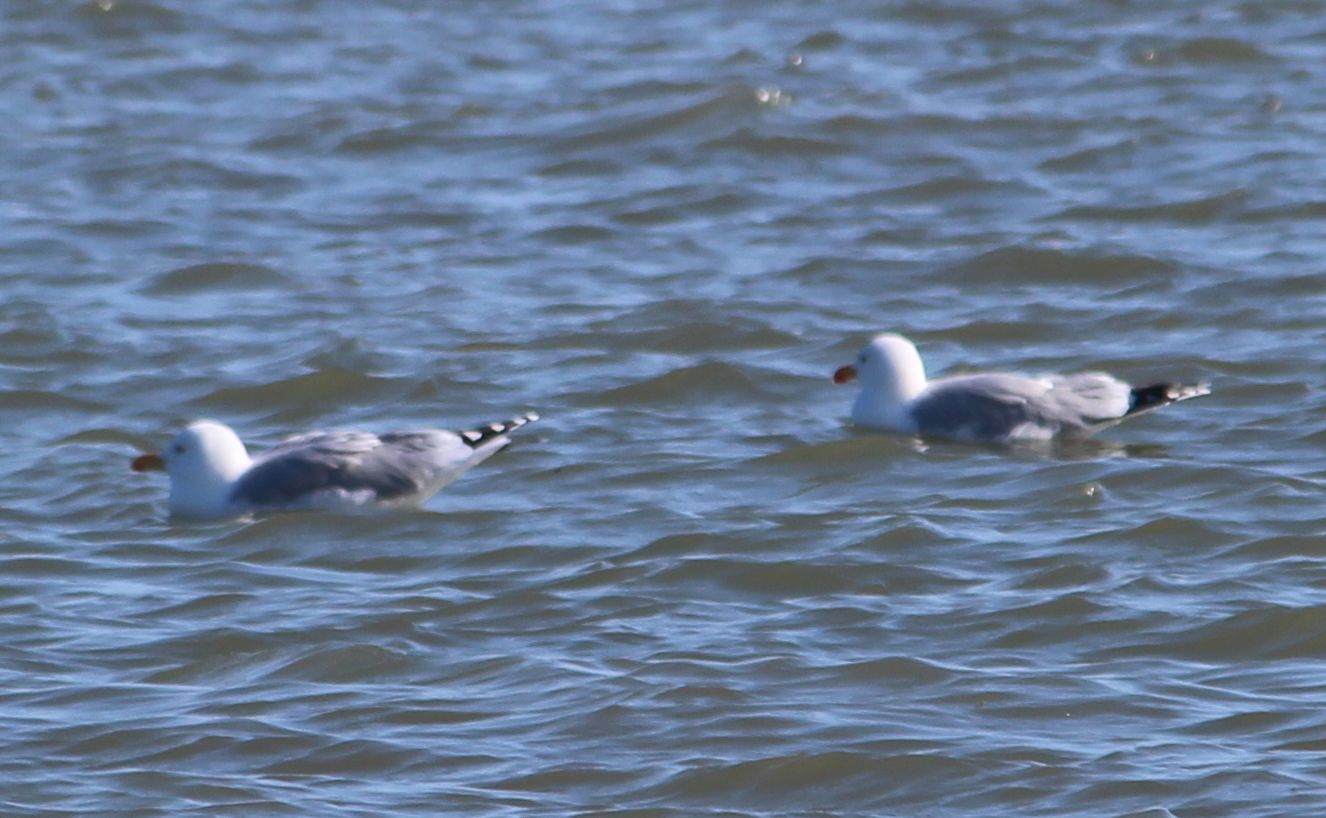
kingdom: Animalia
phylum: Chordata
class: Aves
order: Charadriiformes
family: Laridae
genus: Larus
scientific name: Larus argentatus
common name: Herring gull
